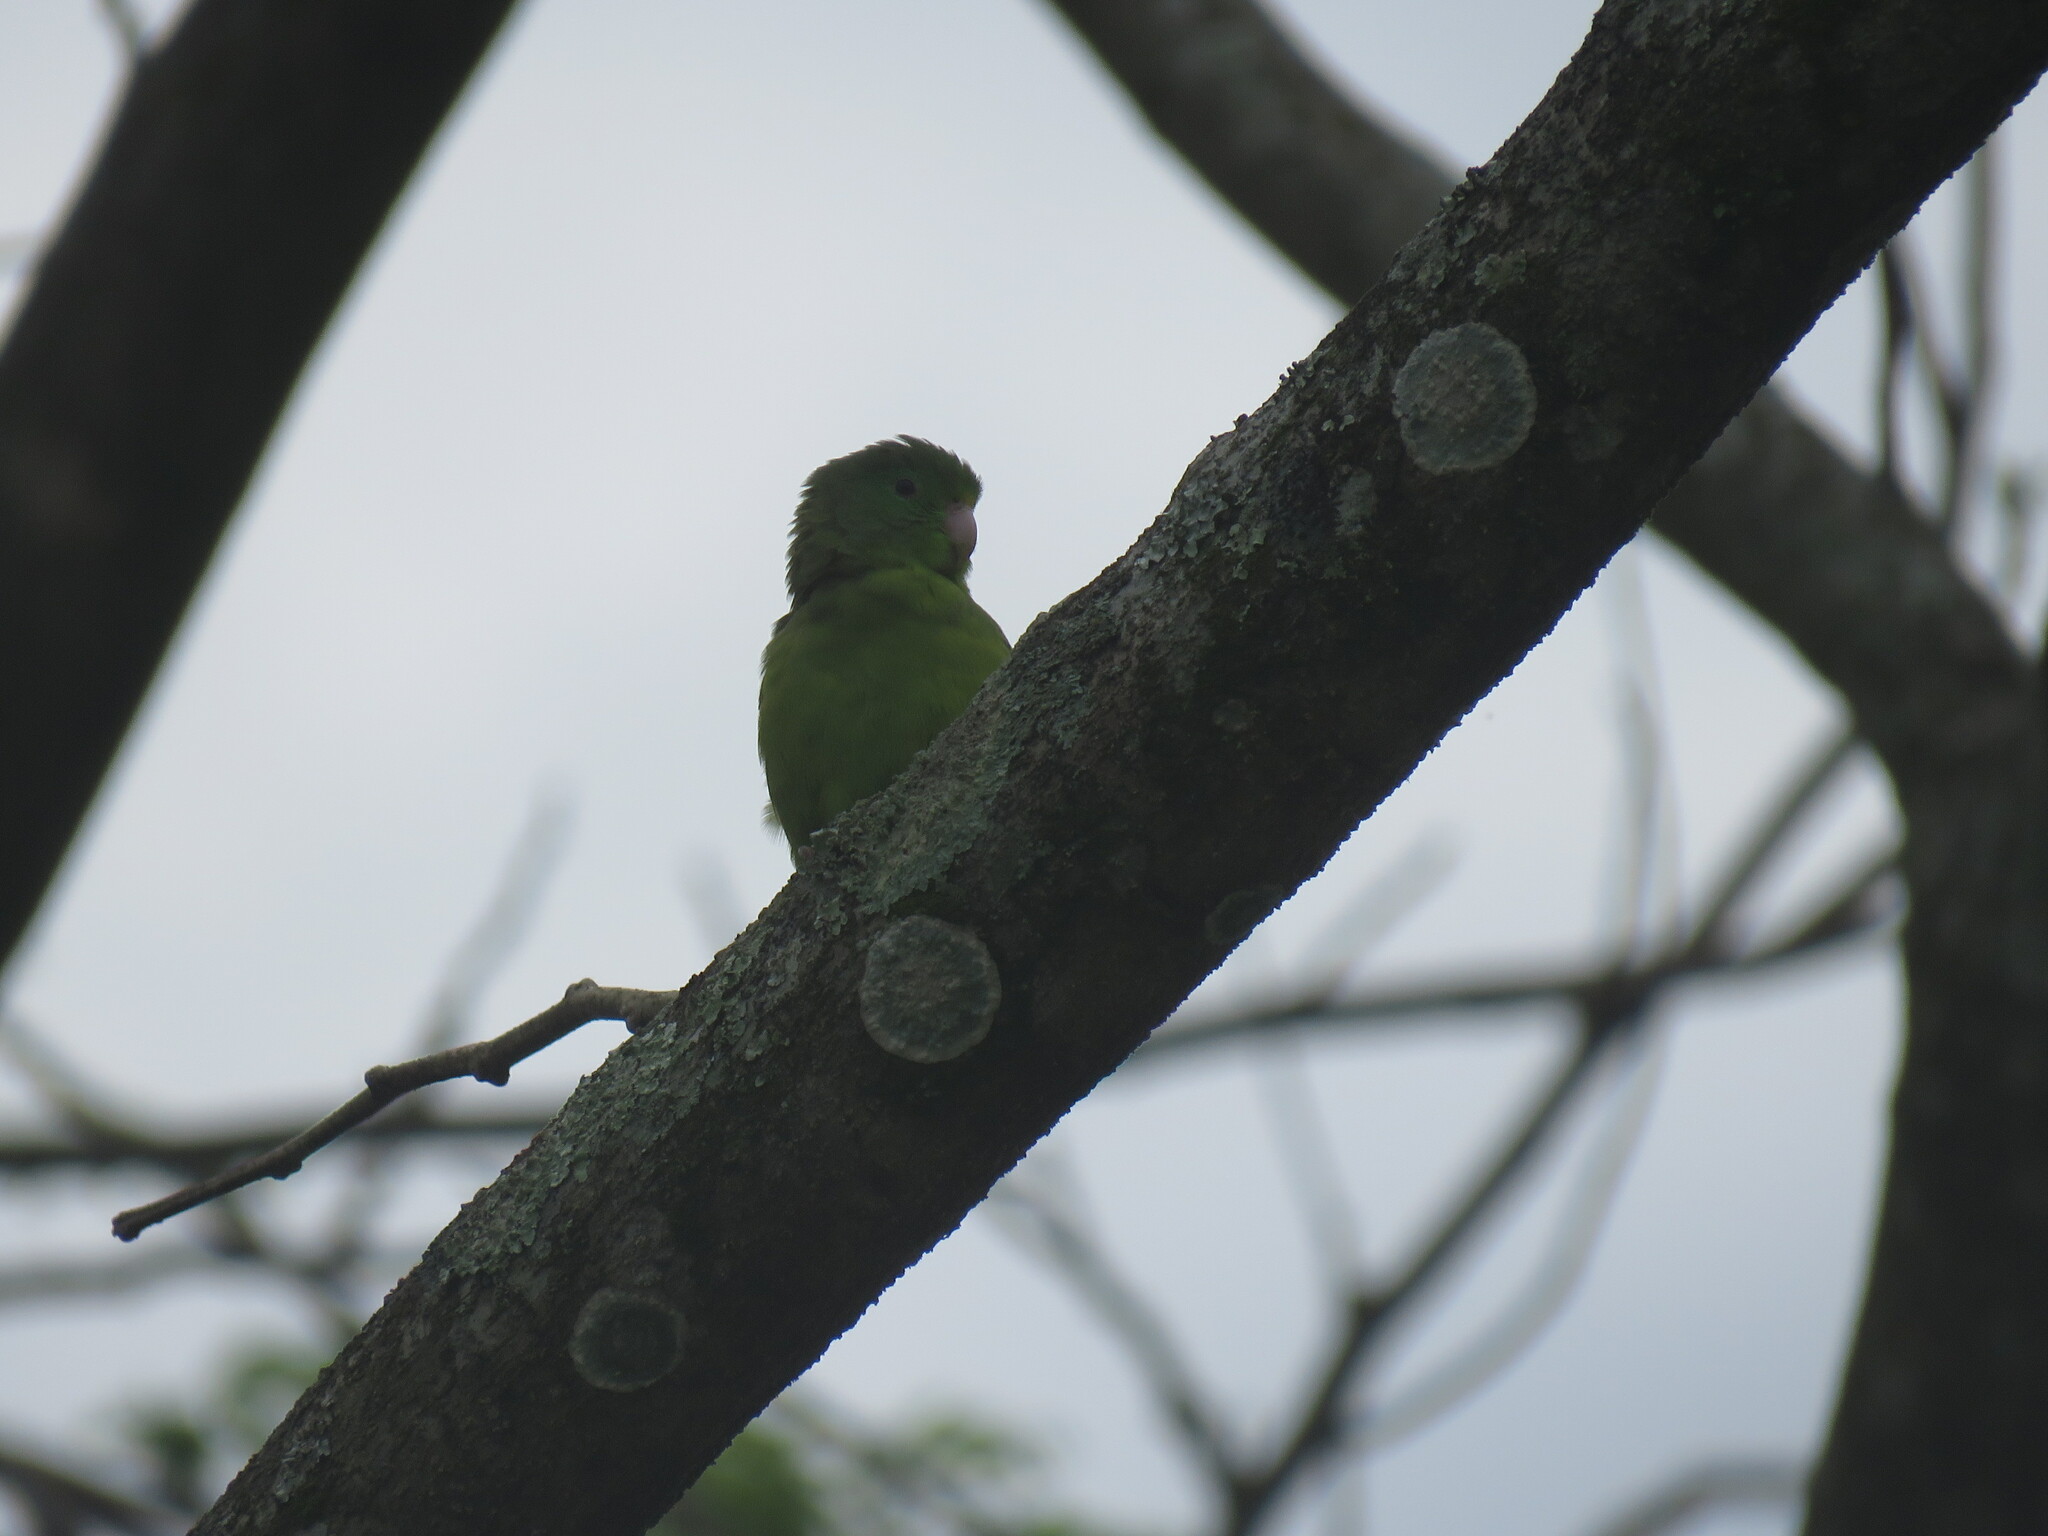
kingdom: Animalia
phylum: Chordata
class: Aves
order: Psittaciformes
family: Psittacidae
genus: Forpus
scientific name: Forpus conspicillatus
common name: Spectacled parrotlet
